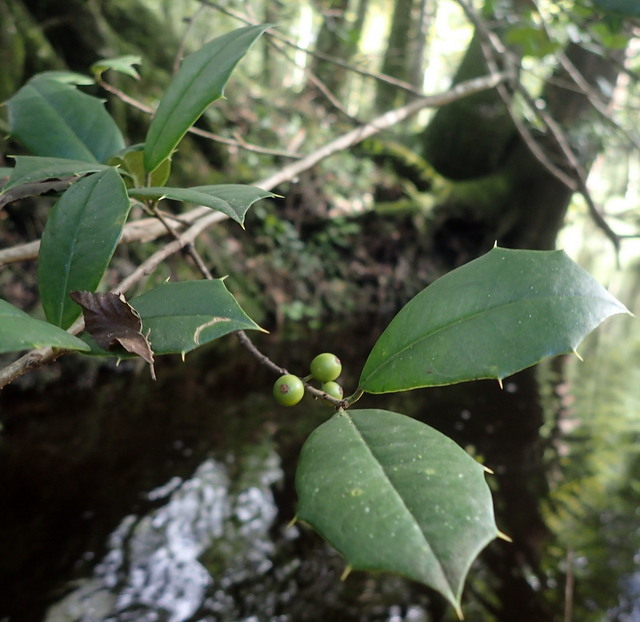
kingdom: Plantae
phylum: Tracheophyta
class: Magnoliopsida
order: Aquifoliales
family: Aquifoliaceae
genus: Ilex
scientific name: Ilex opaca
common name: American holly
